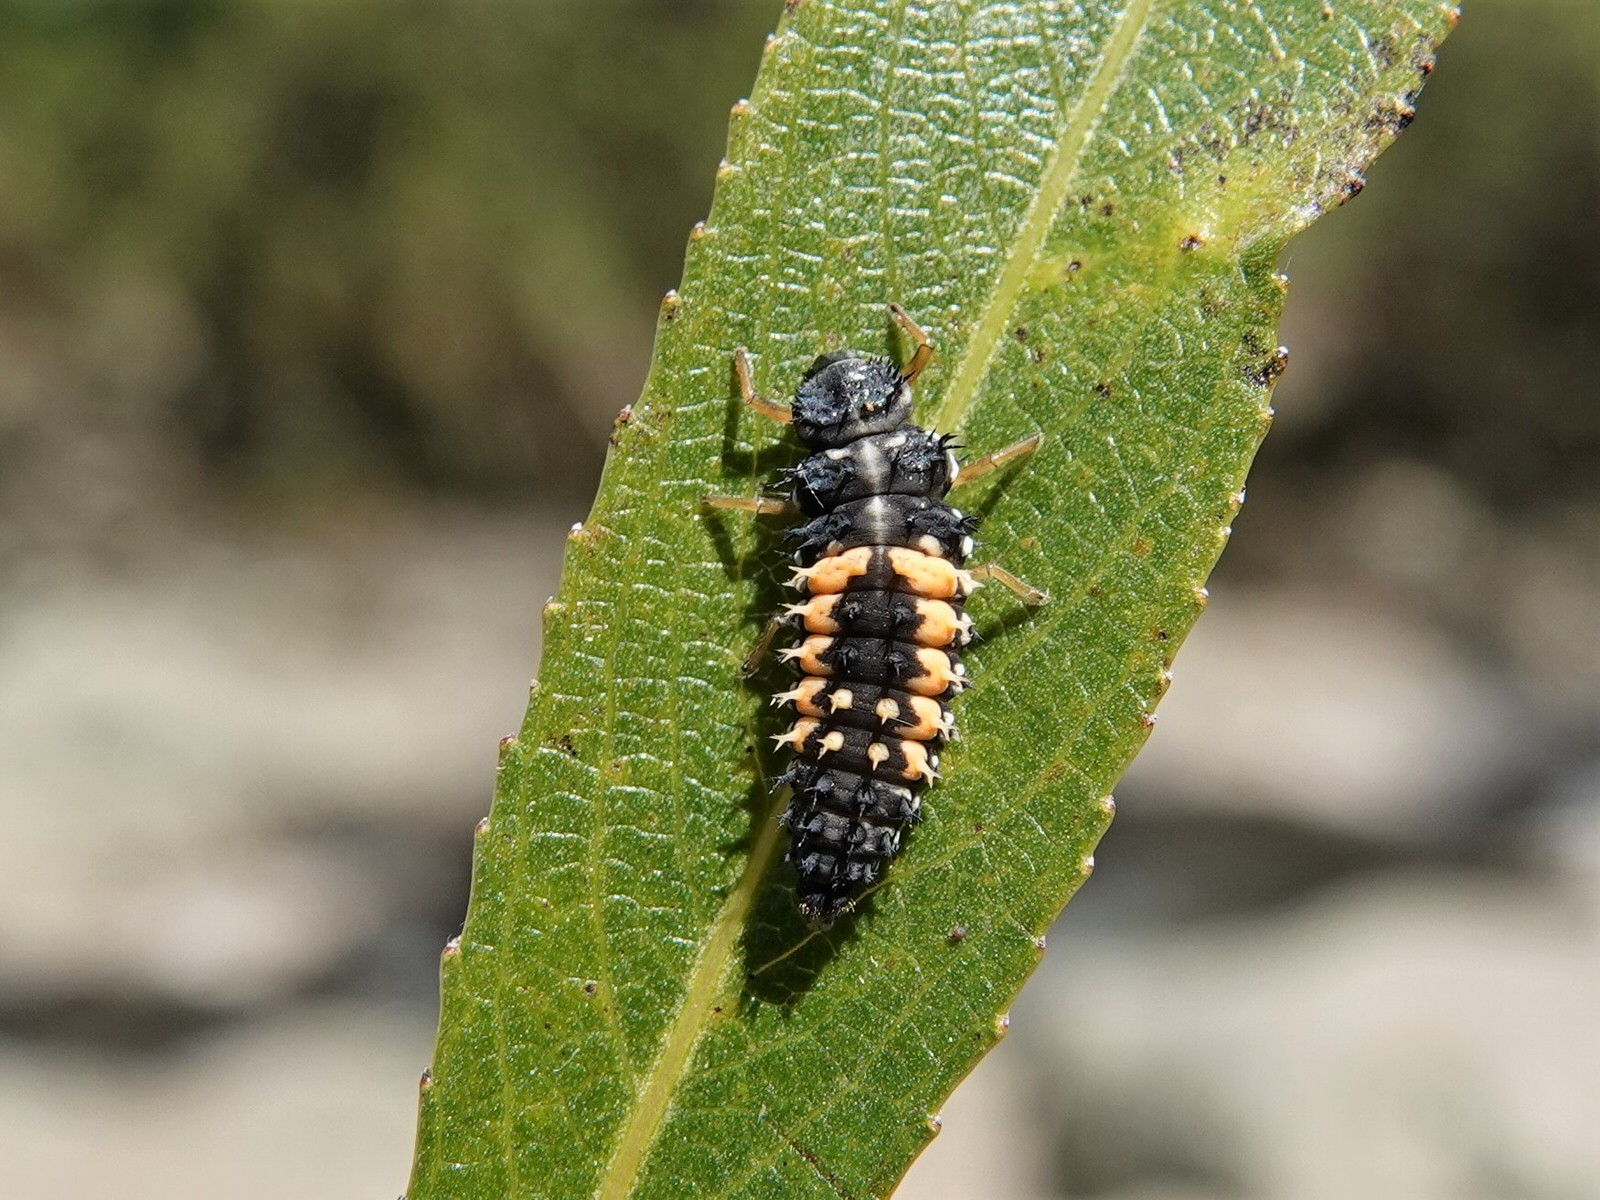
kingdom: Animalia
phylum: Arthropoda
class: Insecta
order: Coleoptera
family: Coccinellidae
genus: Harmonia
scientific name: Harmonia axyridis
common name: Harlequin ladybird
